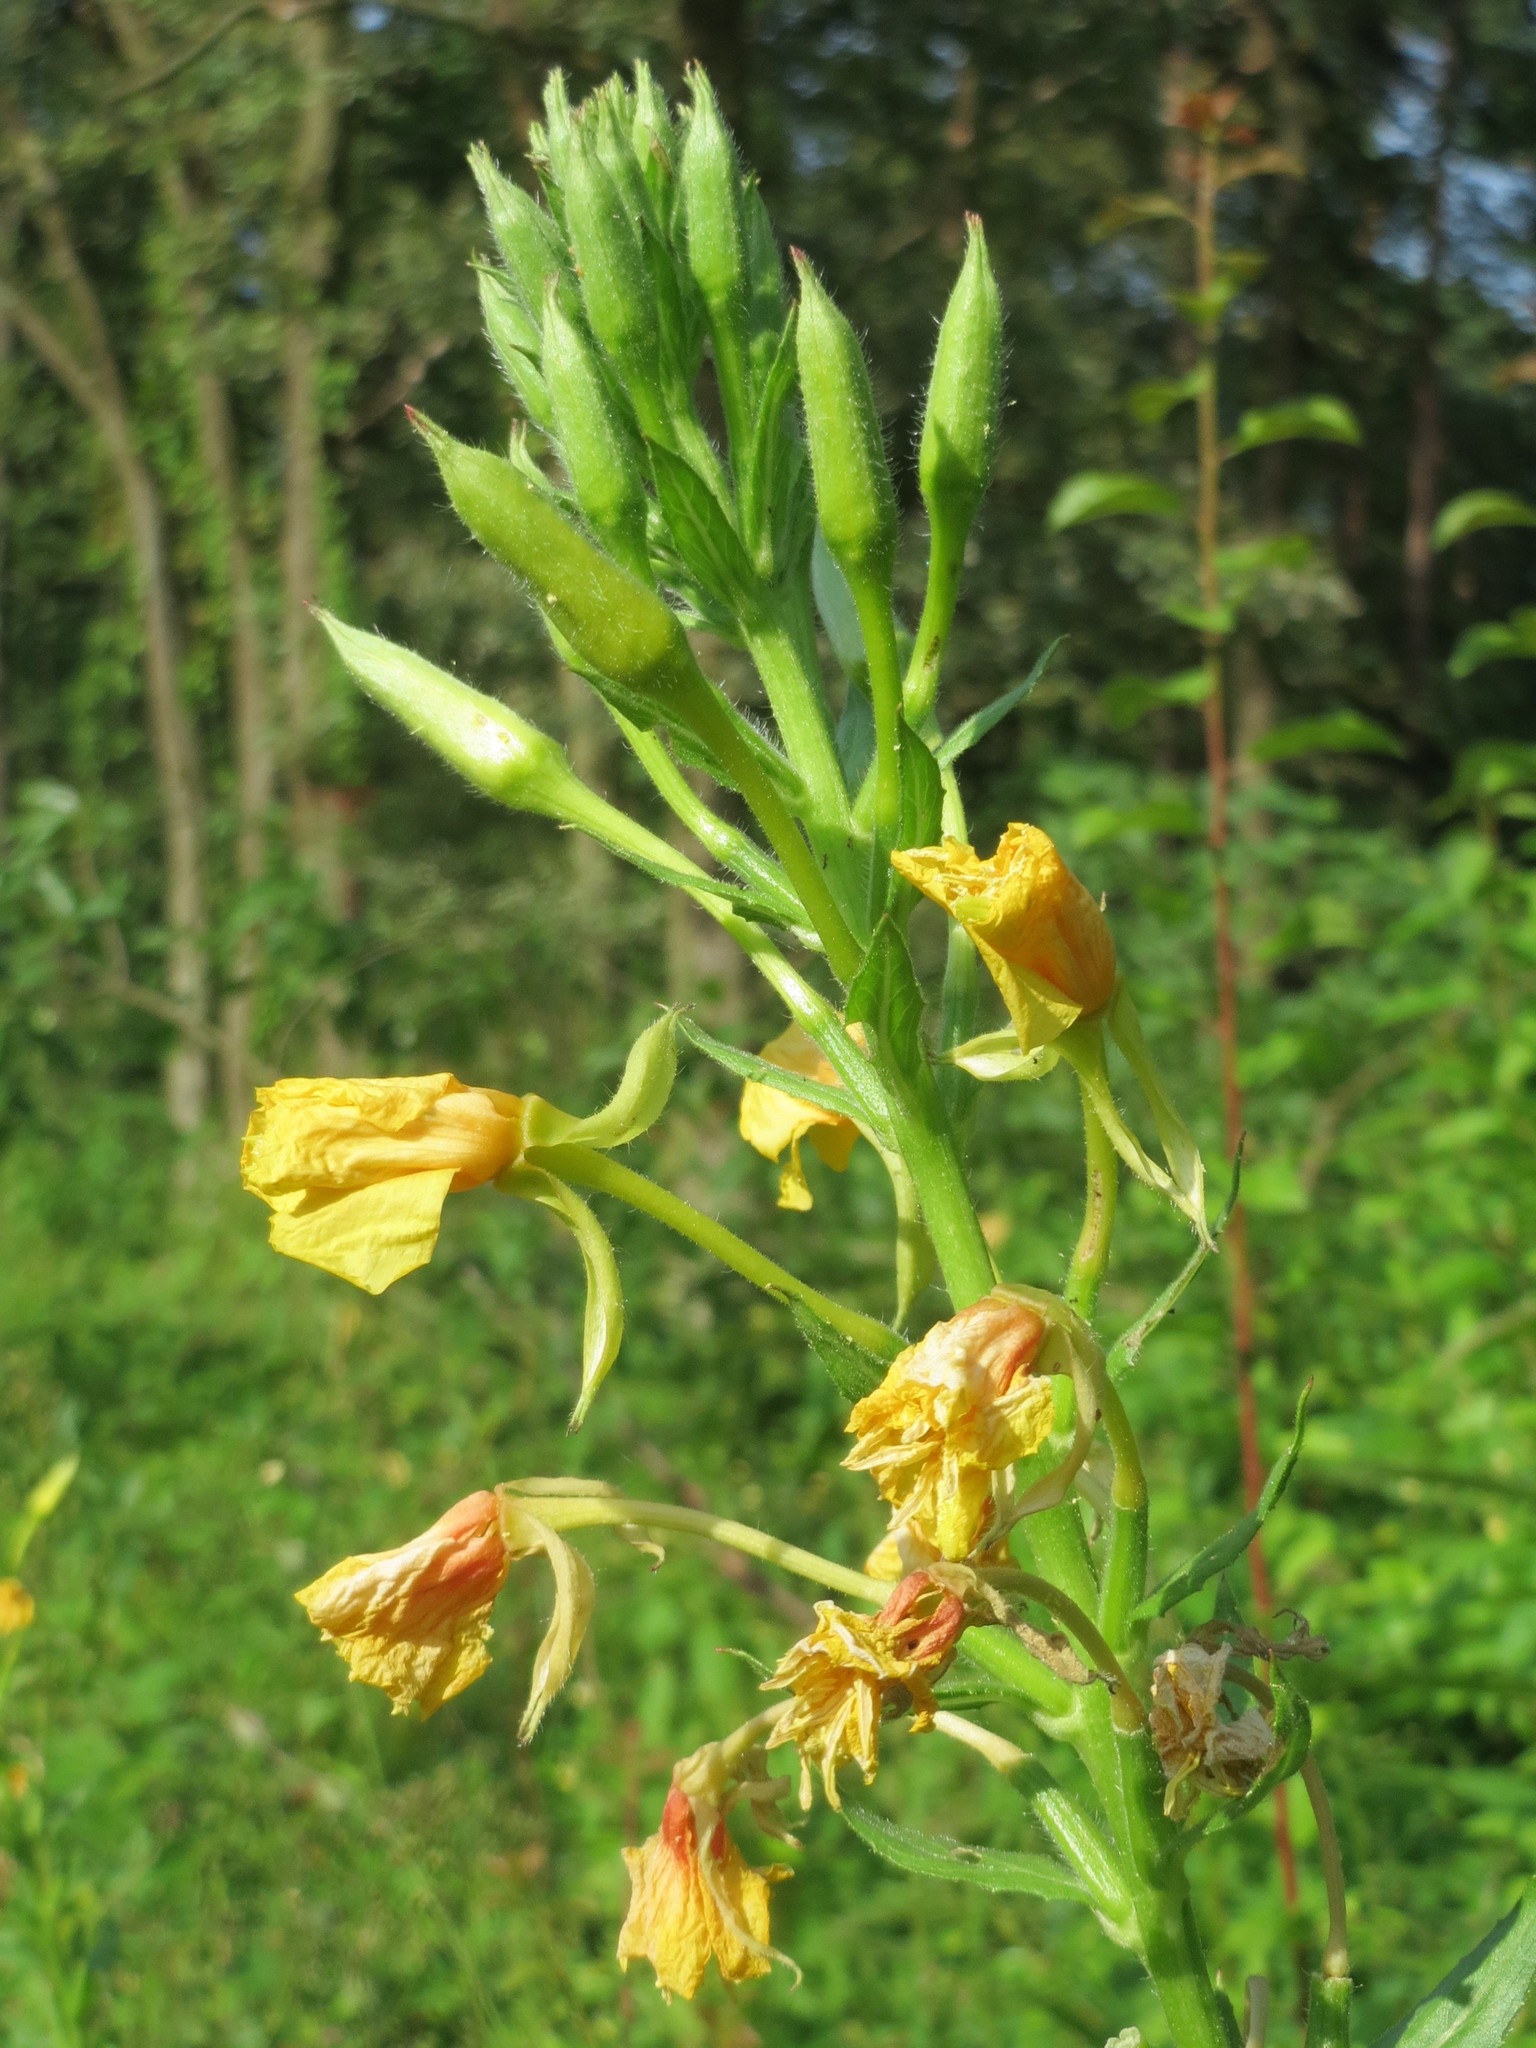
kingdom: Plantae
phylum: Tracheophyta
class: Magnoliopsida
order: Myrtales
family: Onagraceae
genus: Oenothera
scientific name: Oenothera biennis
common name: Common evening-primrose
